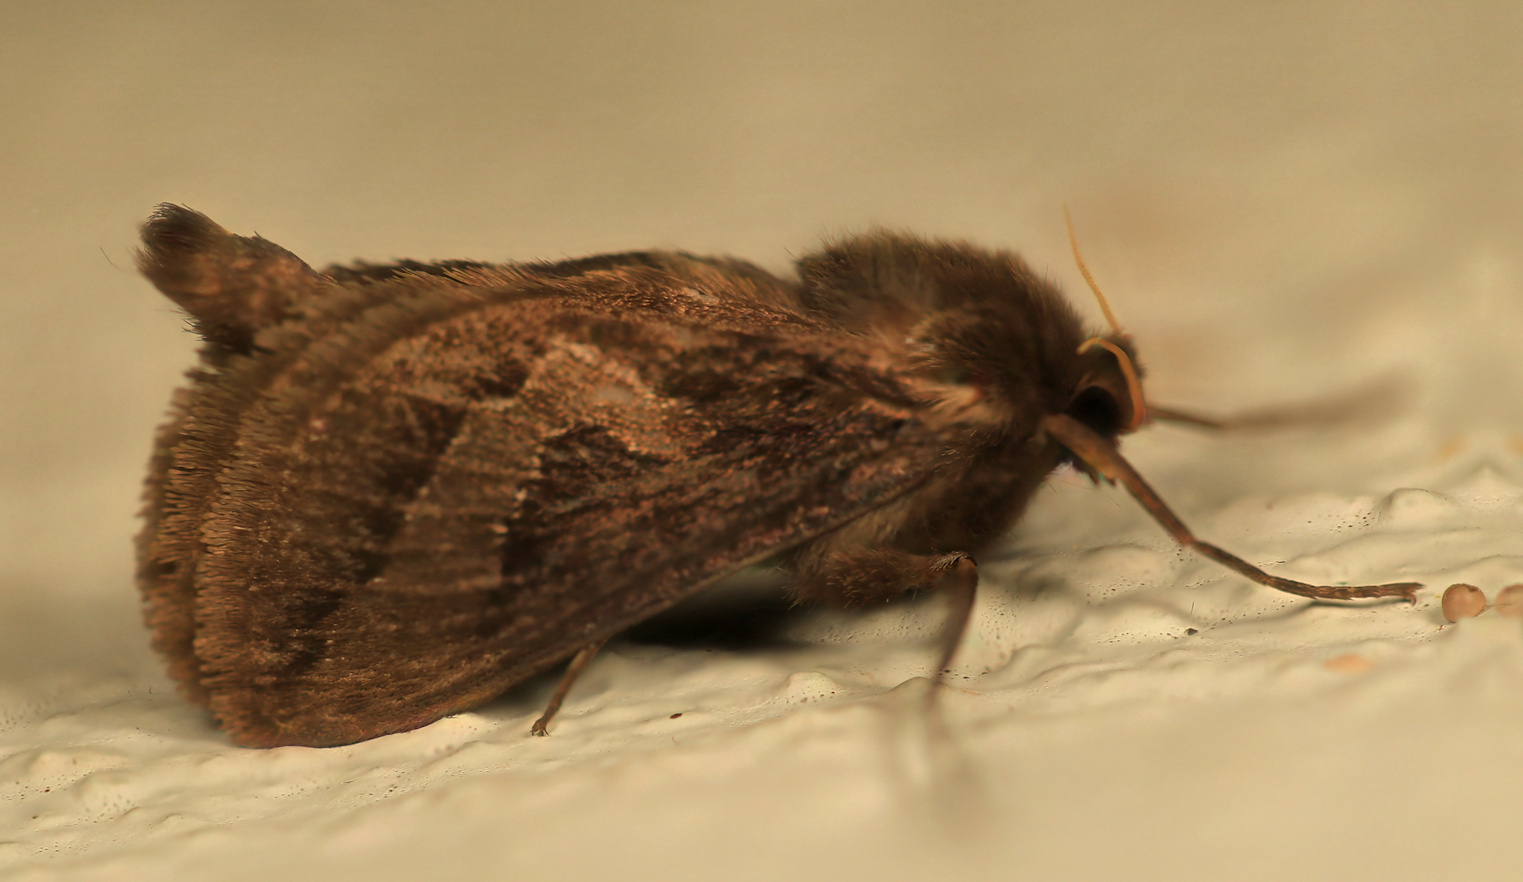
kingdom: Animalia
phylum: Arthropoda
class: Insecta
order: Lepidoptera
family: Hepialidae
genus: Eudalaca
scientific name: Eudalaca ammon
